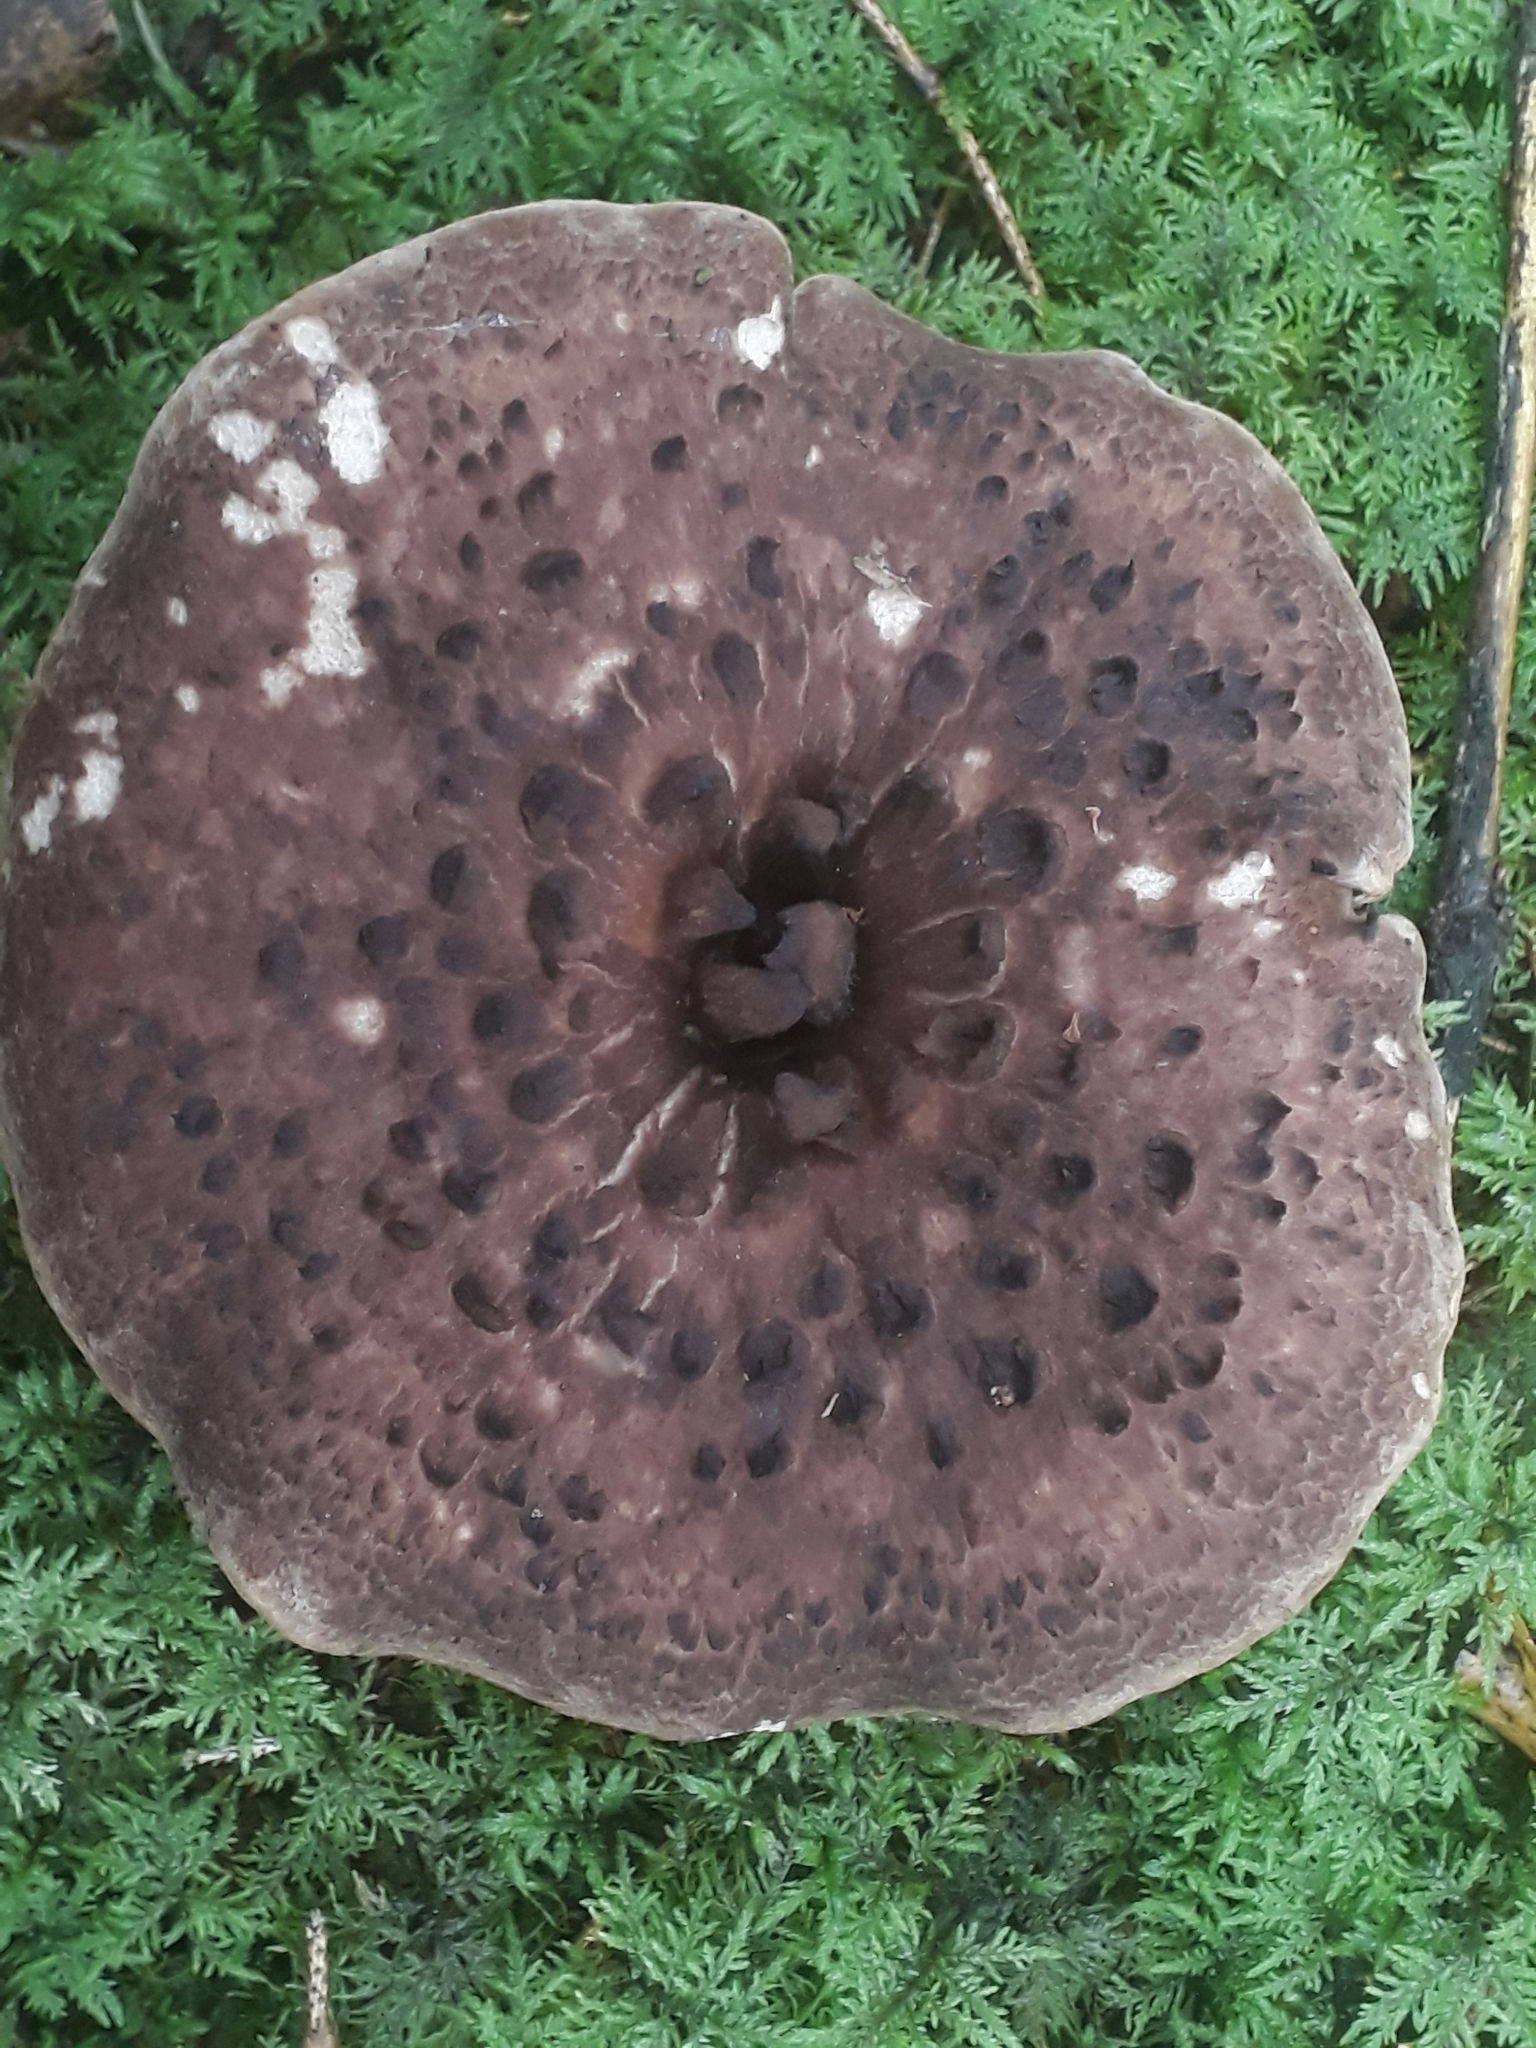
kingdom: Fungi
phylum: Basidiomycota
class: Agaricomycetes
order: Thelephorales
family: Bankeraceae
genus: Sarcodon
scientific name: Sarcodon imbricatus
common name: Shingled hedgehog
